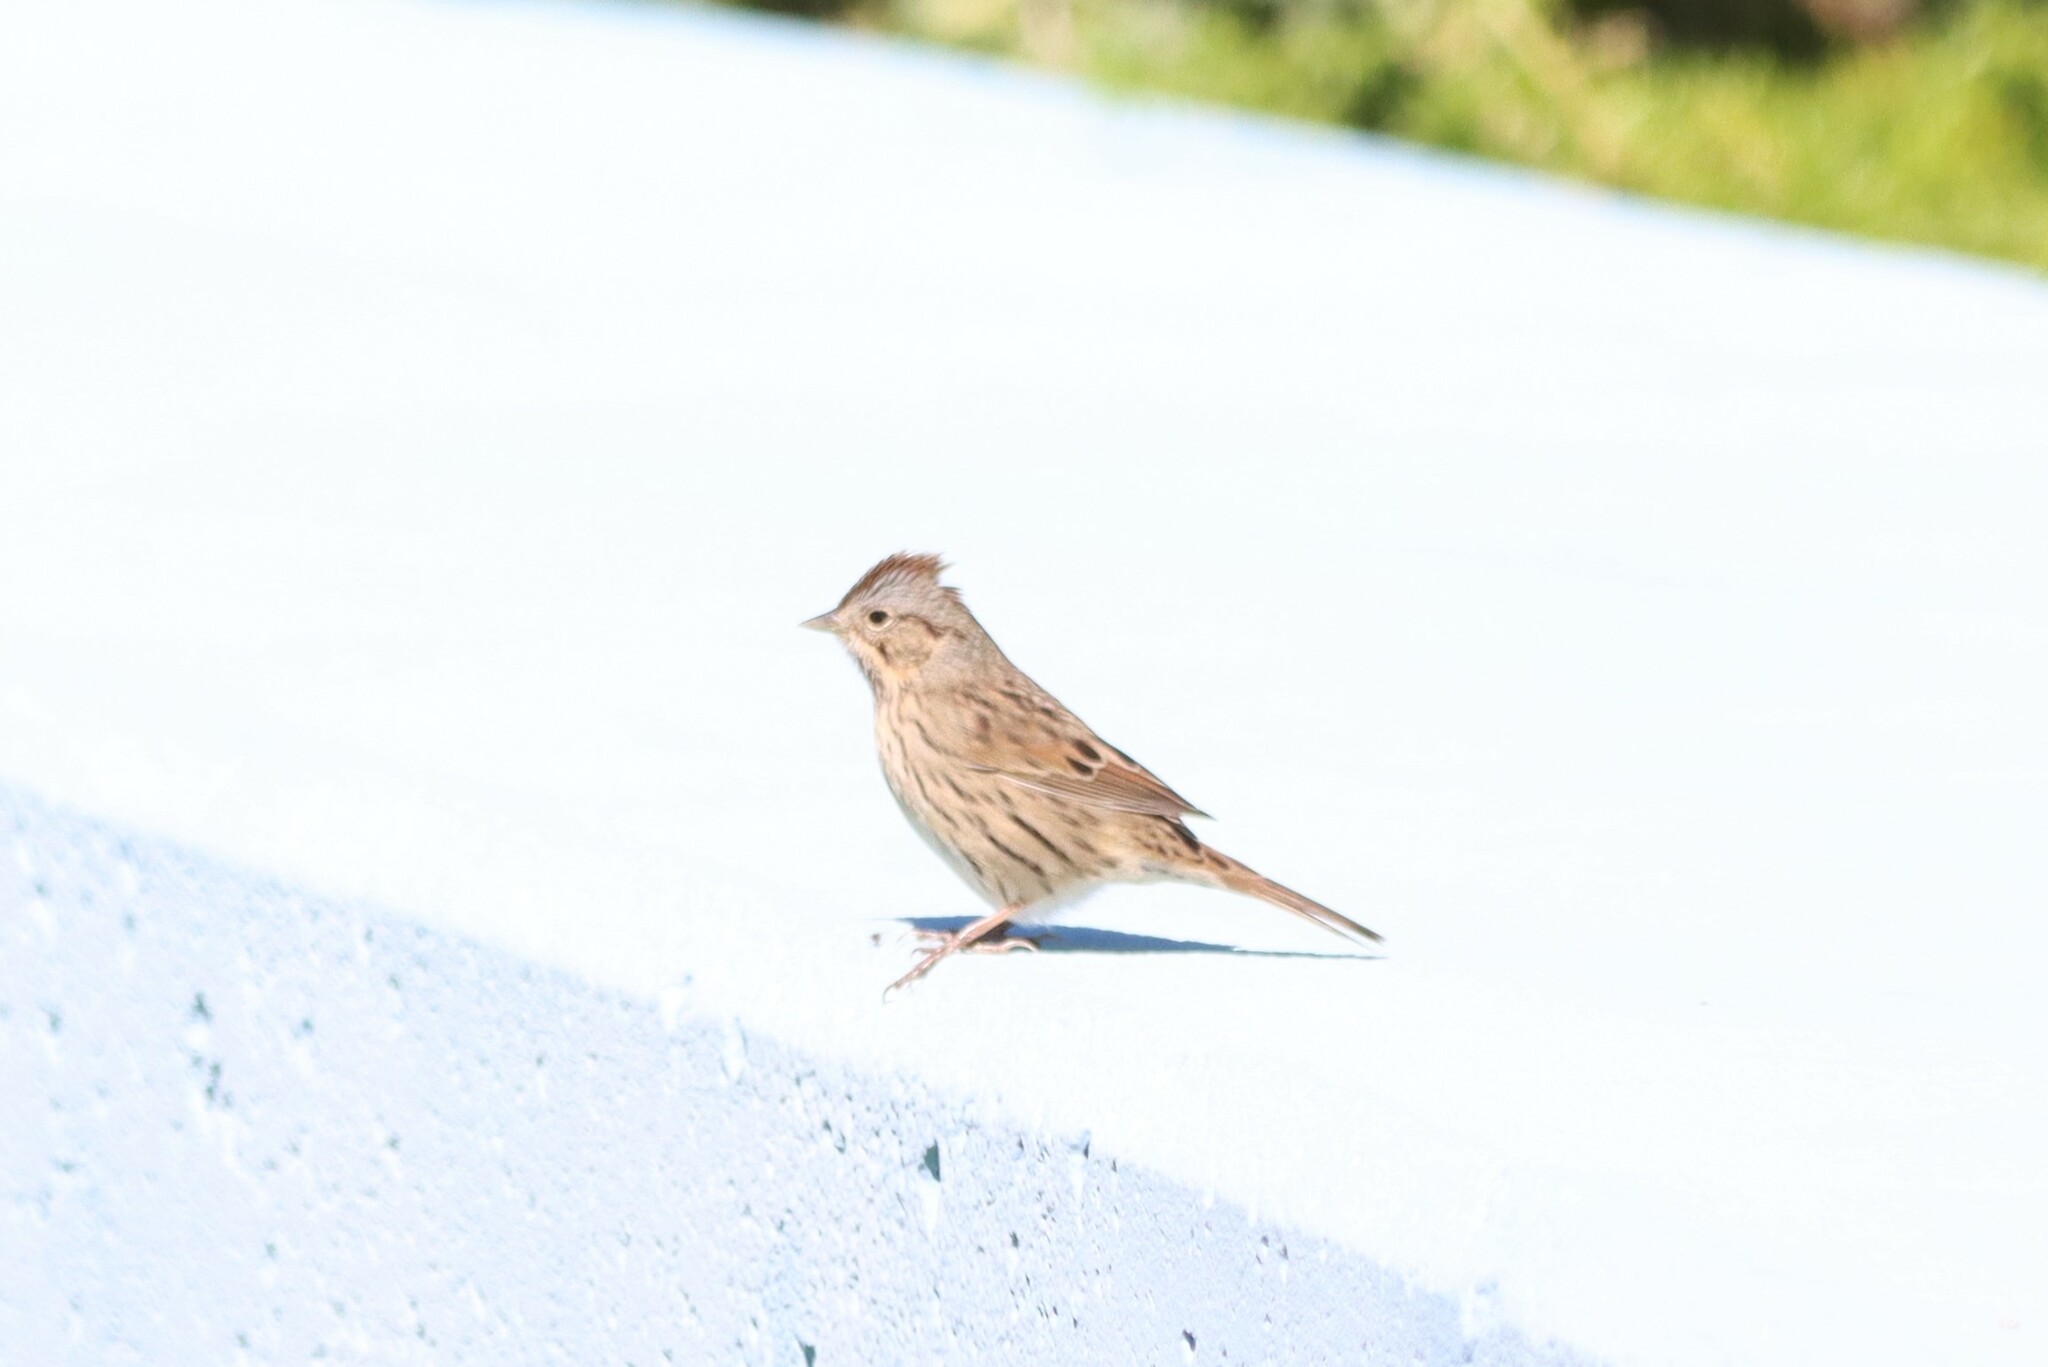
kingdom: Animalia
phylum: Chordata
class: Aves
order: Passeriformes
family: Passerellidae
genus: Melospiza
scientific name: Melospiza lincolnii
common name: Lincoln's sparrow
